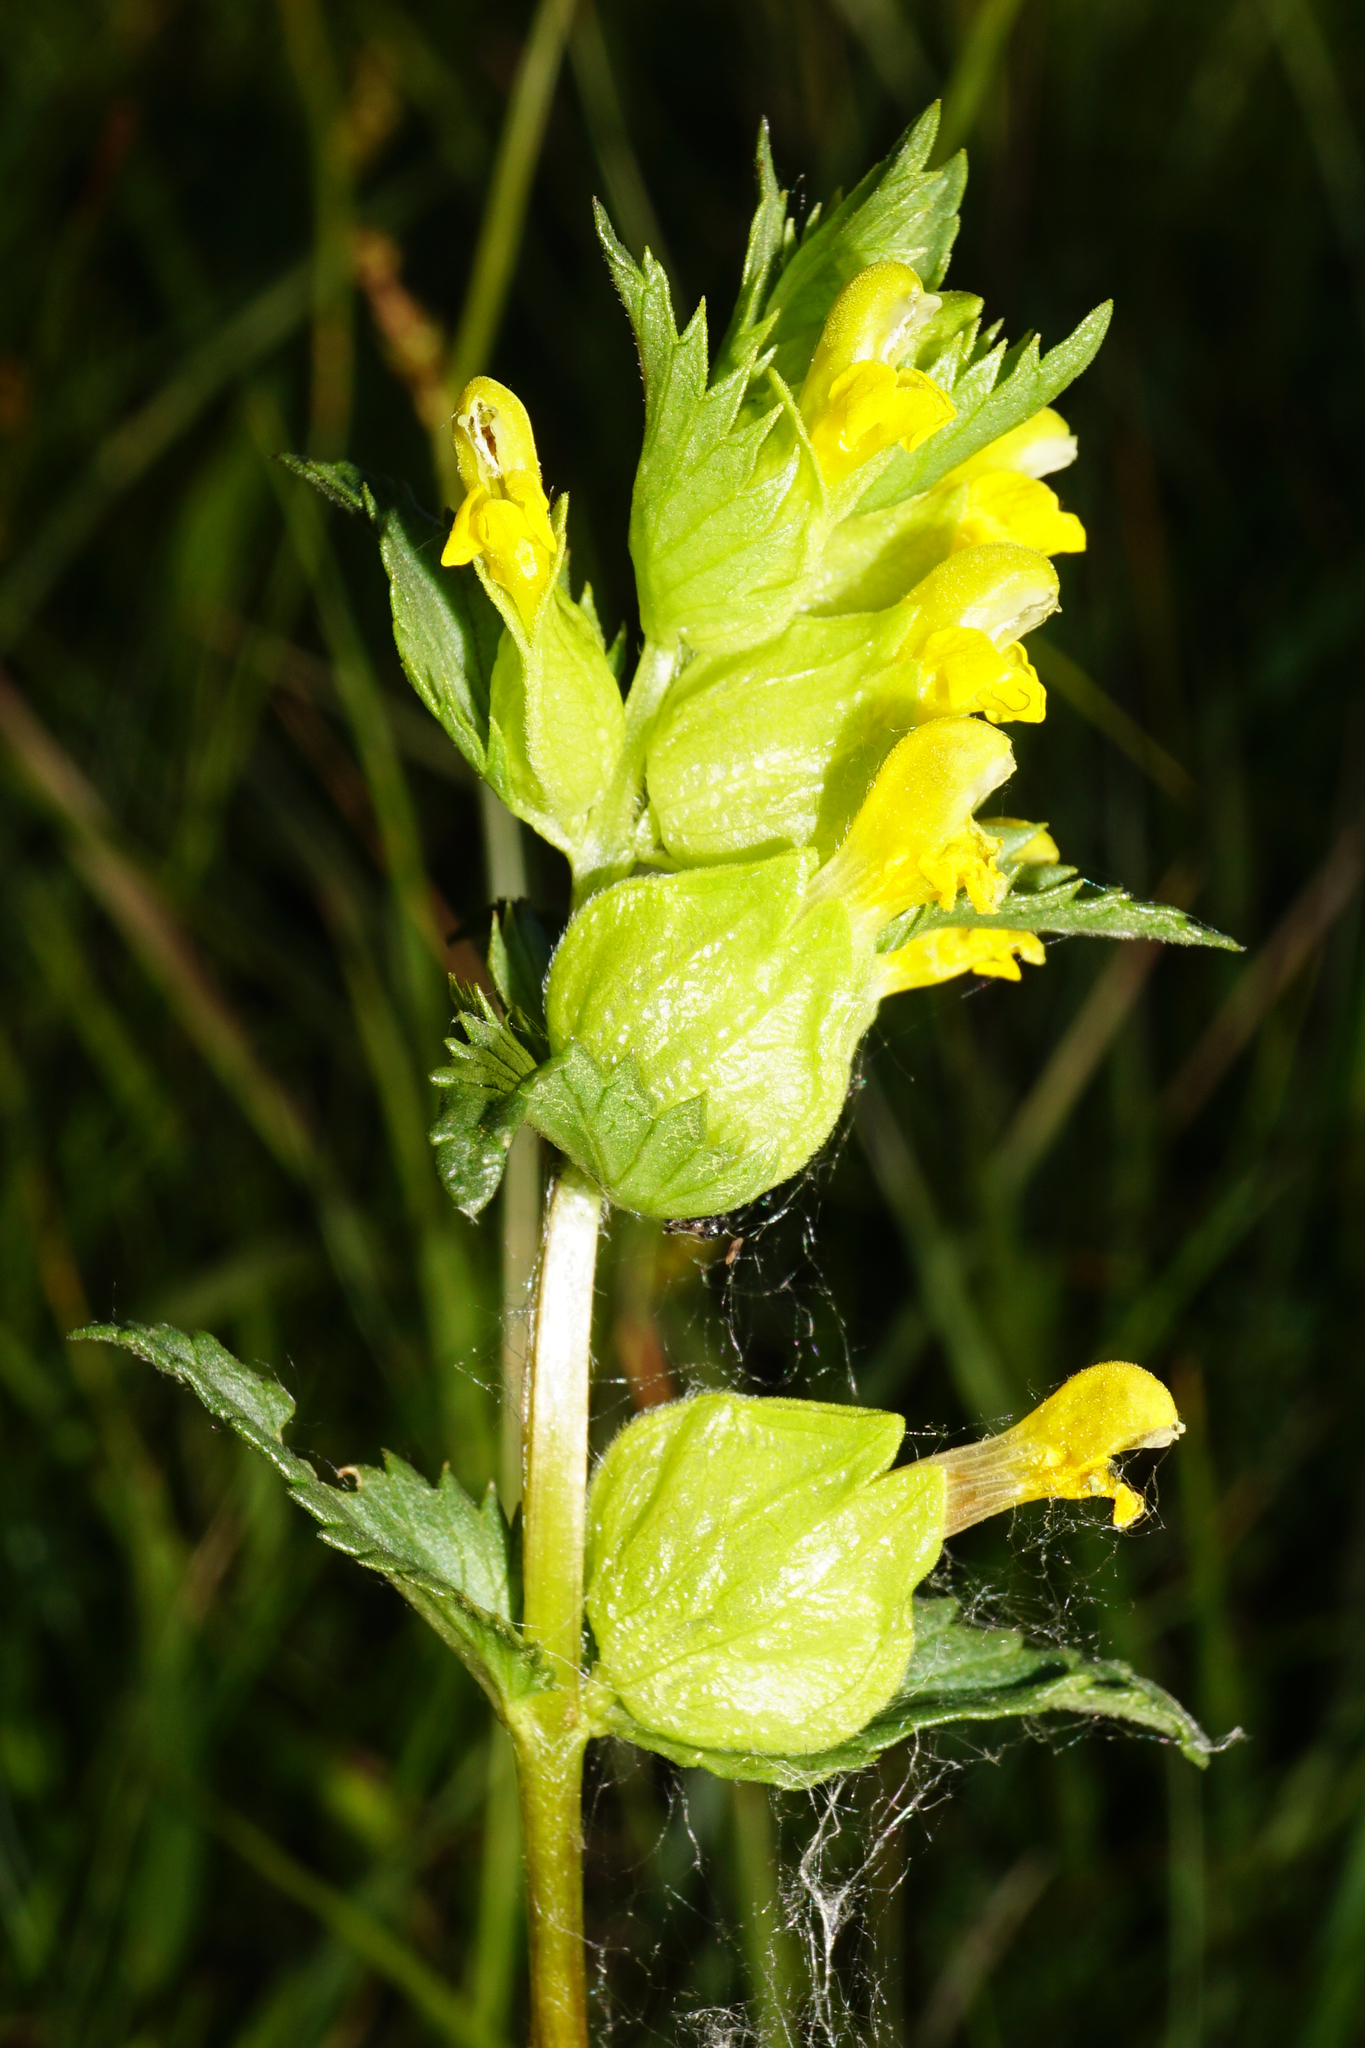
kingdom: Plantae
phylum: Tracheophyta
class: Magnoliopsida
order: Lamiales
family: Orobanchaceae
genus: Rhinanthus
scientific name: Rhinanthus minor
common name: Yellow-rattle
